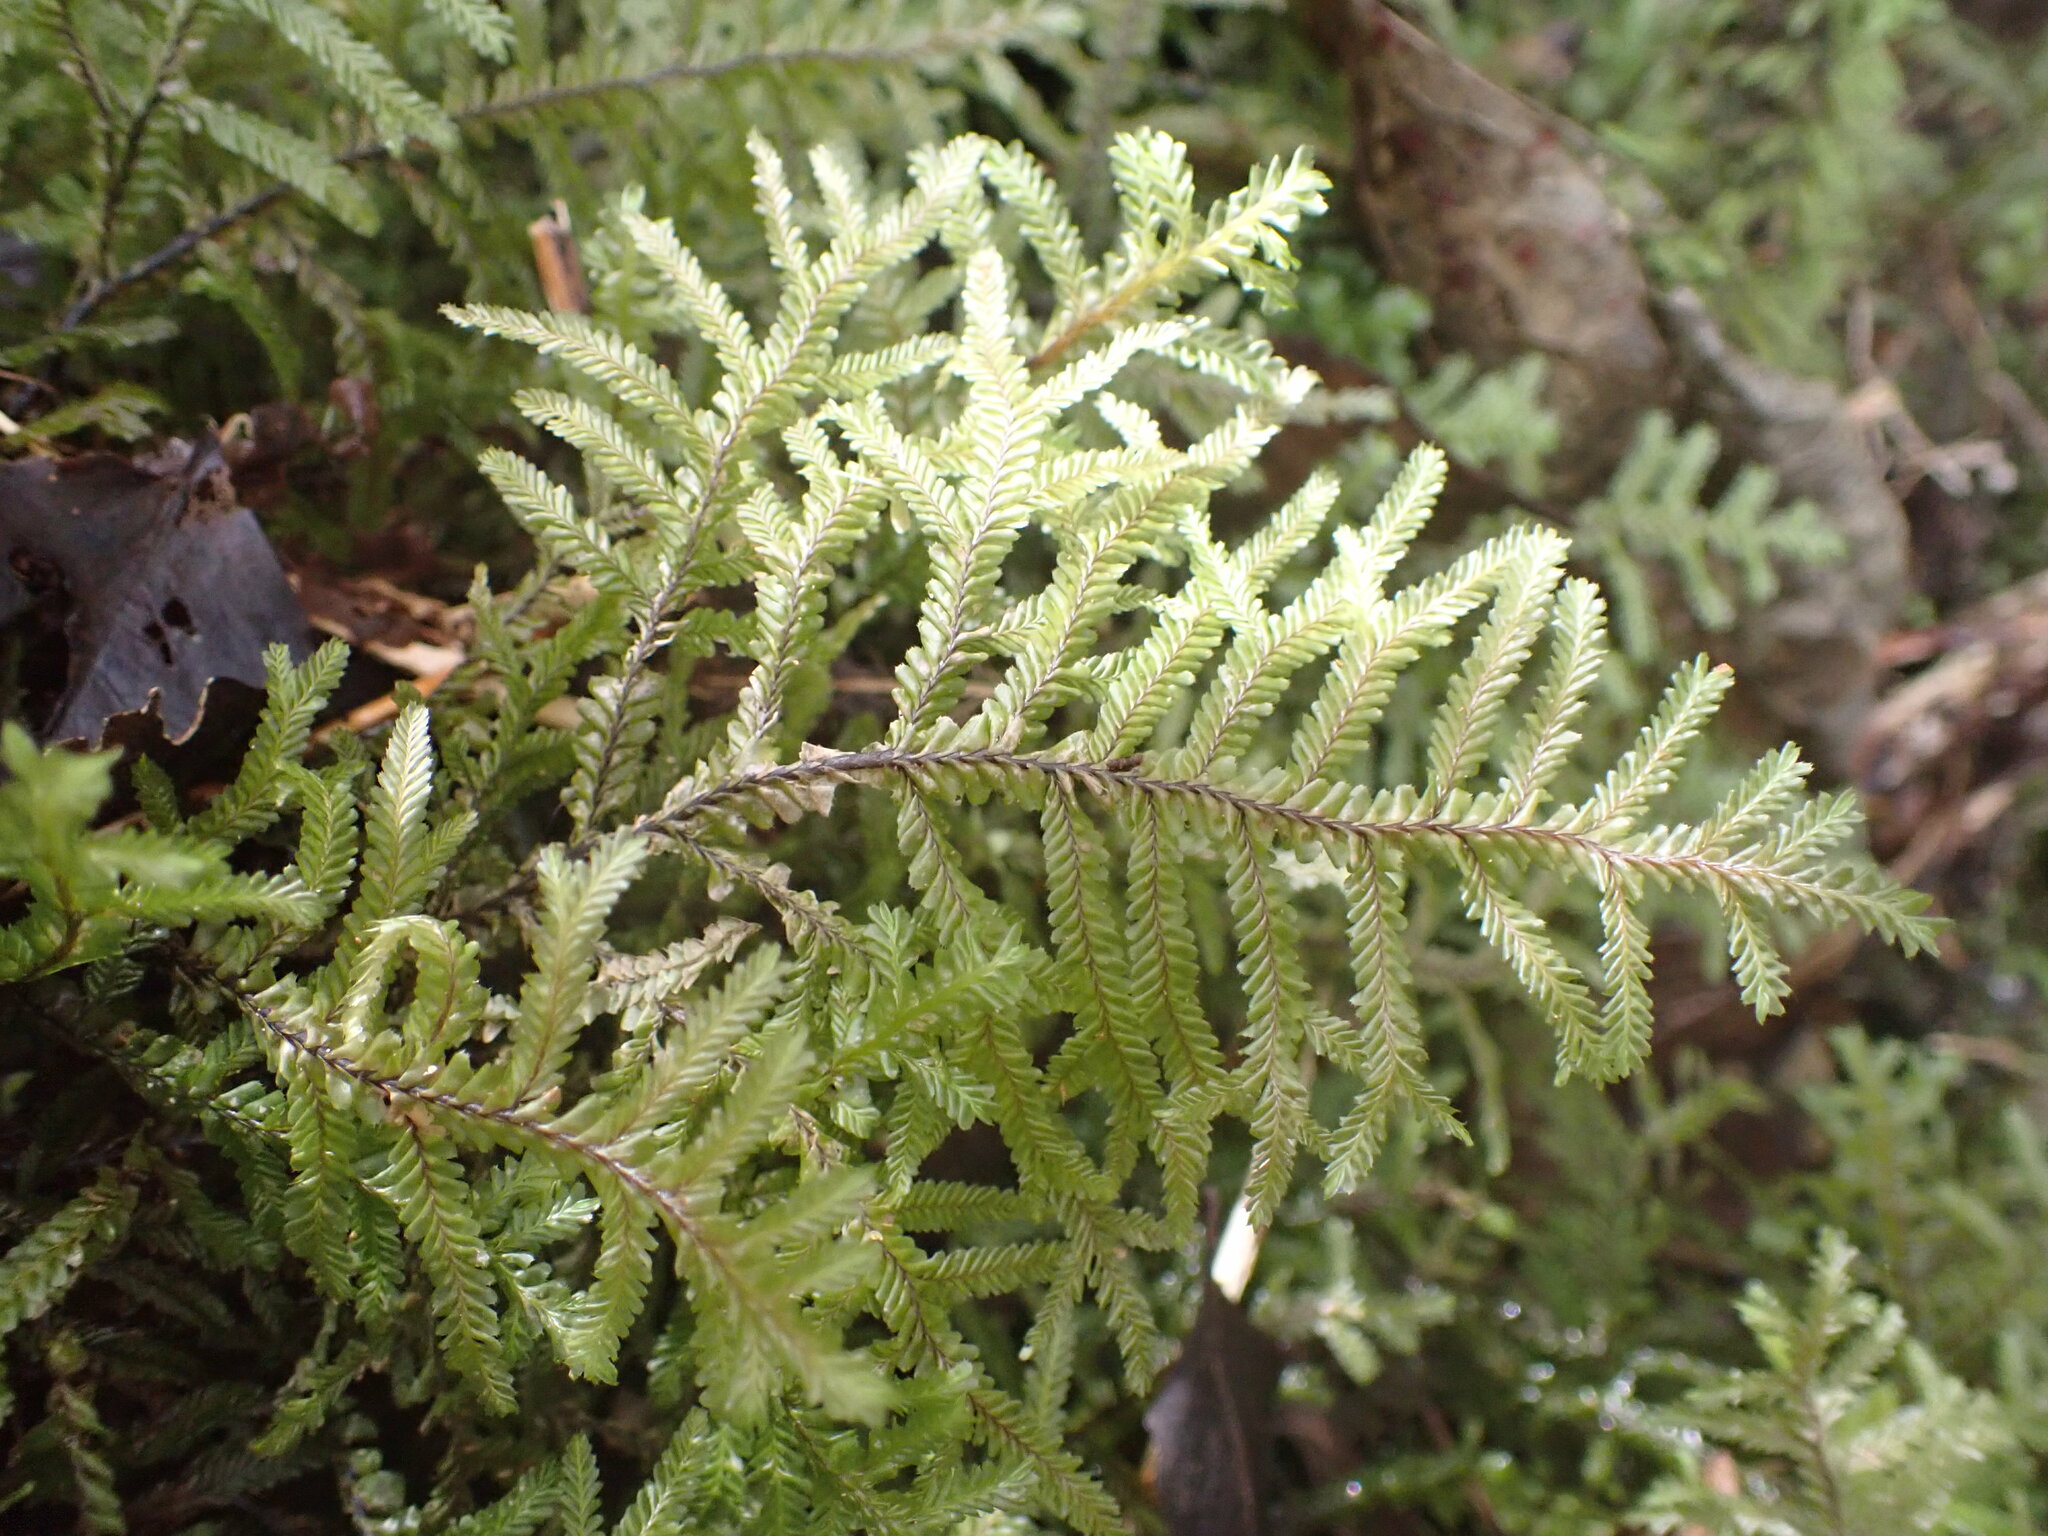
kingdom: Plantae
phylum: Marchantiophyta
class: Jungermanniopsida
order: Jungermanniales
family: Plagiochilaceae
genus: Plagiochila
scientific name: Plagiochila stephensoniana
